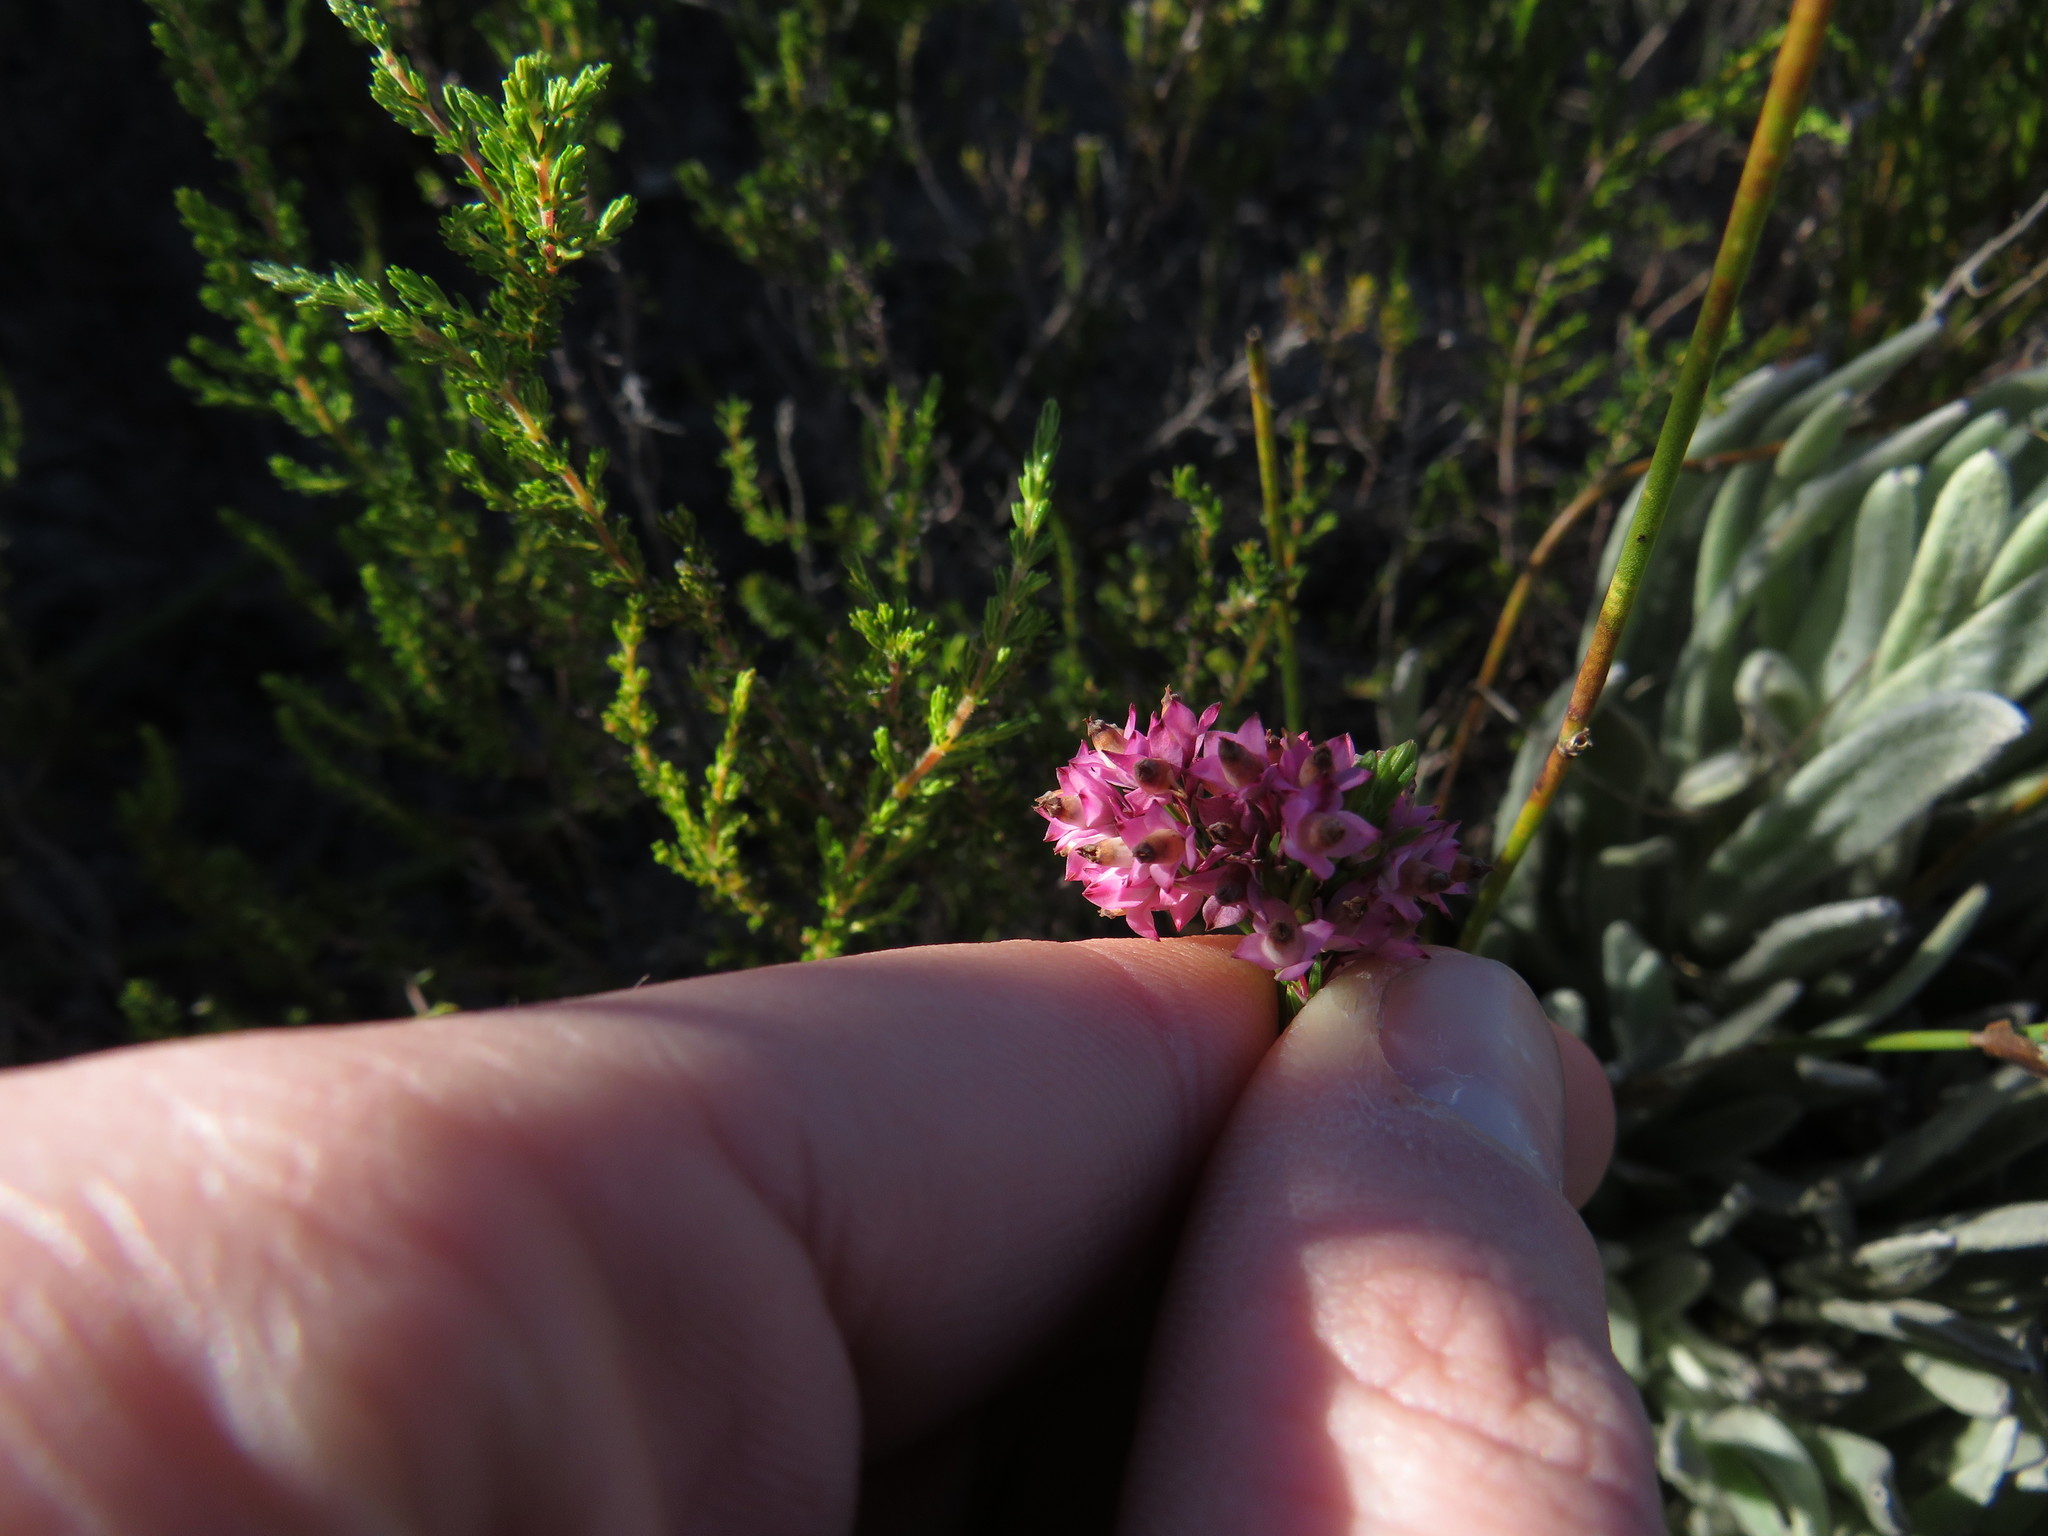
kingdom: Plantae
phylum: Tracheophyta
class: Magnoliopsida
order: Ericales
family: Ericaceae
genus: Erica
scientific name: Erica corifolia
